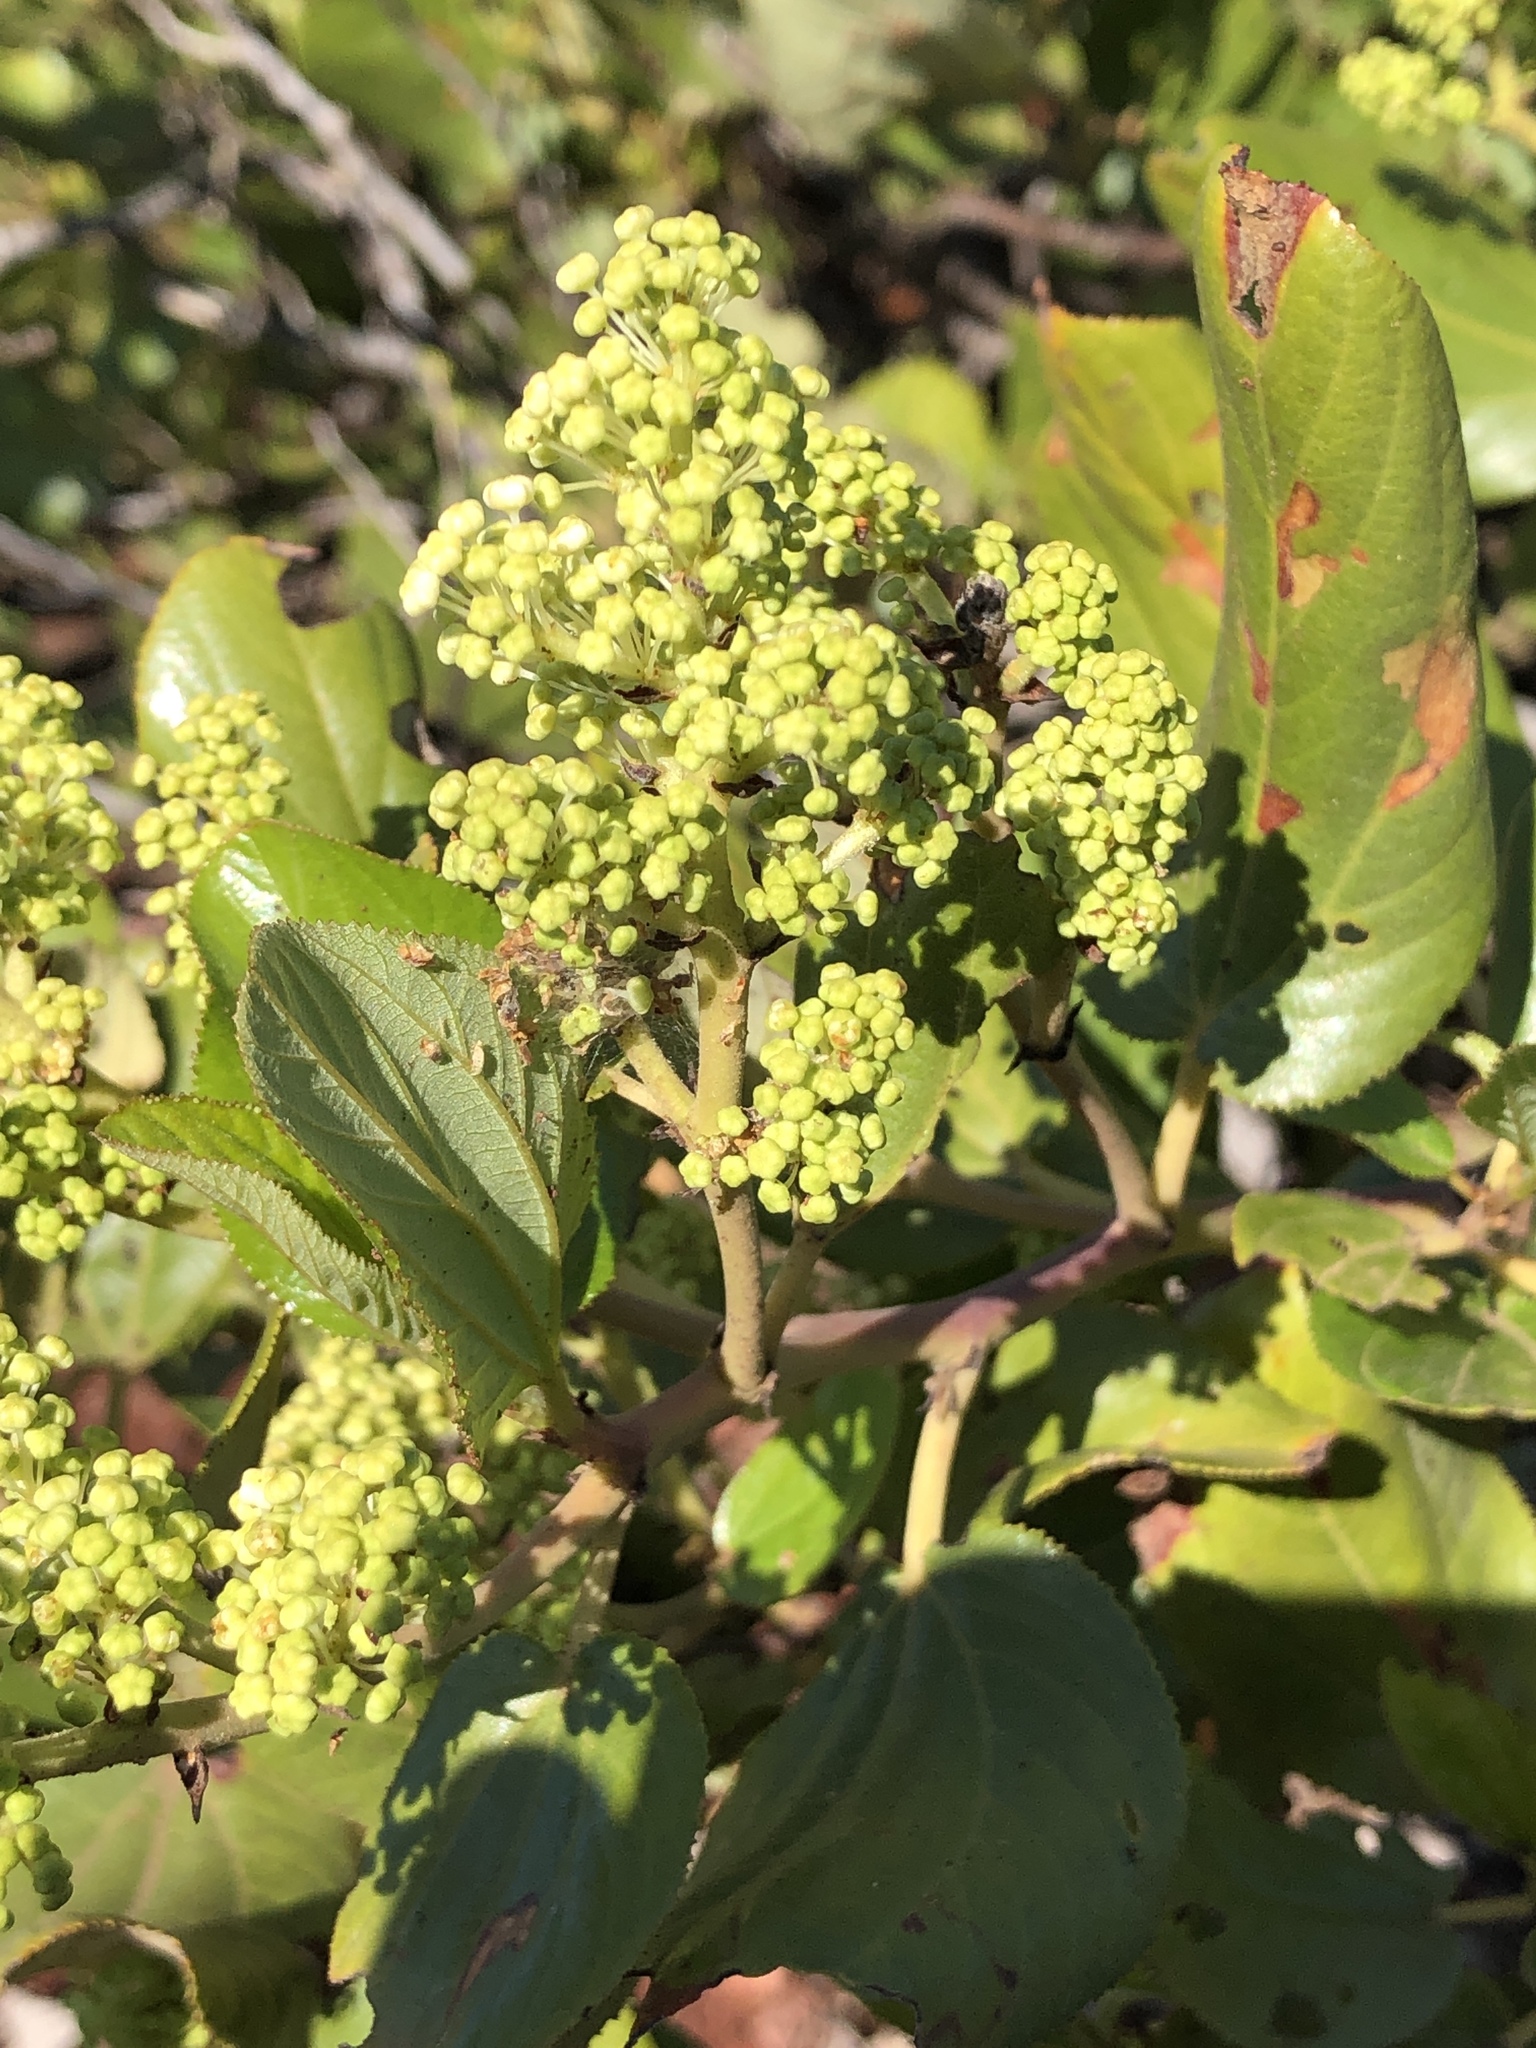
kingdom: Plantae
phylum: Tracheophyta
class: Magnoliopsida
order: Rosales
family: Rhamnaceae
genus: Ceanothus
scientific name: Ceanothus velutinus
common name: Snowbrush
